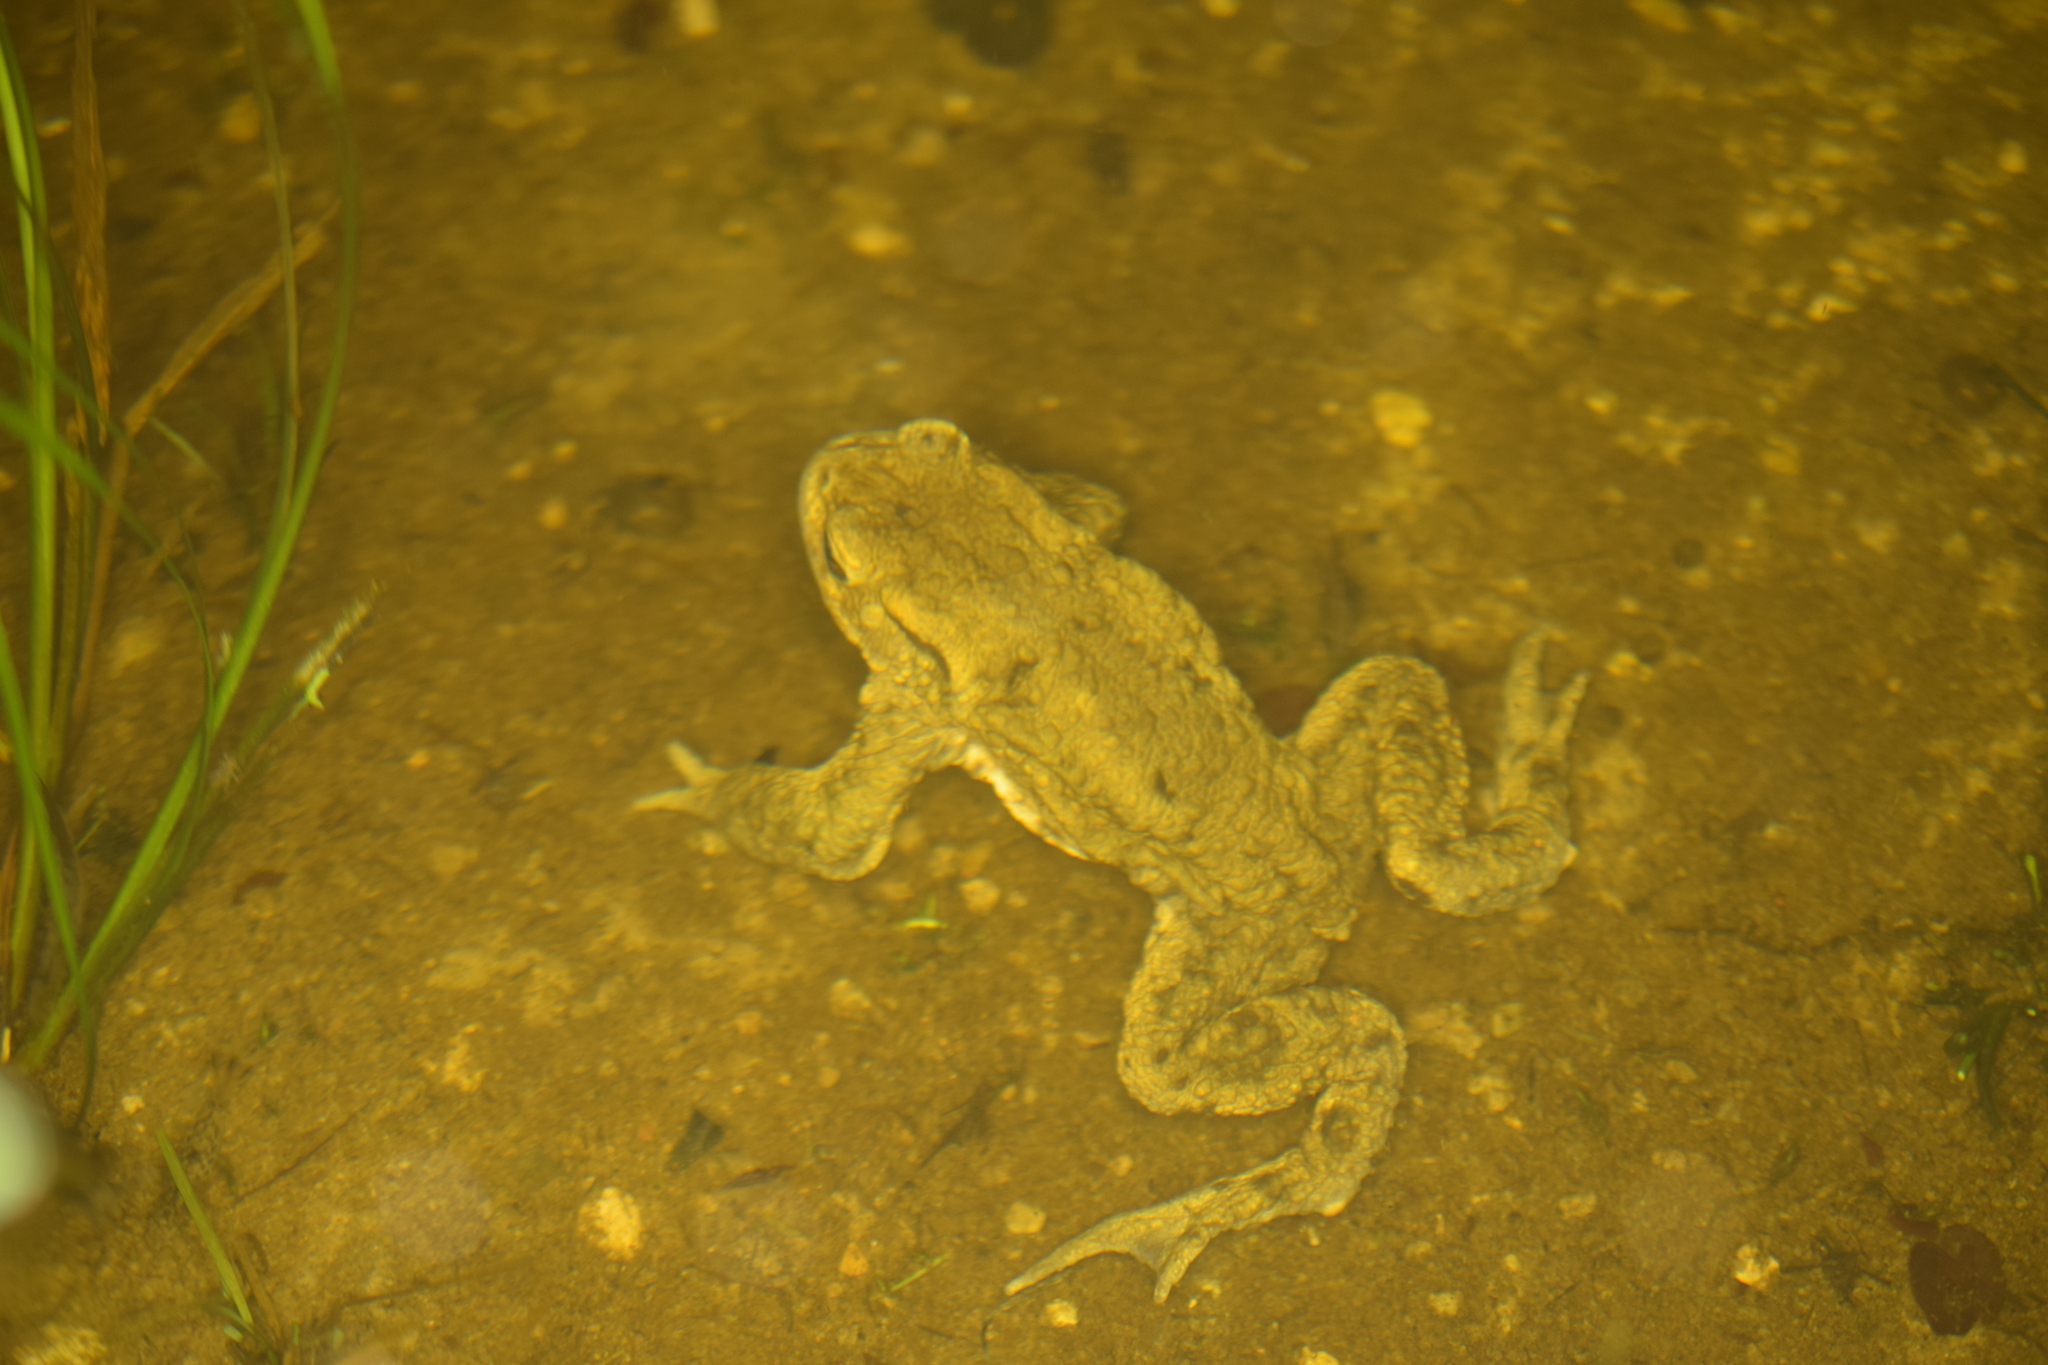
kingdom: Animalia
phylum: Chordata
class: Amphibia
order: Anura
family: Bufonidae
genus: Bufo
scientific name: Bufo bufo
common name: Common toad
